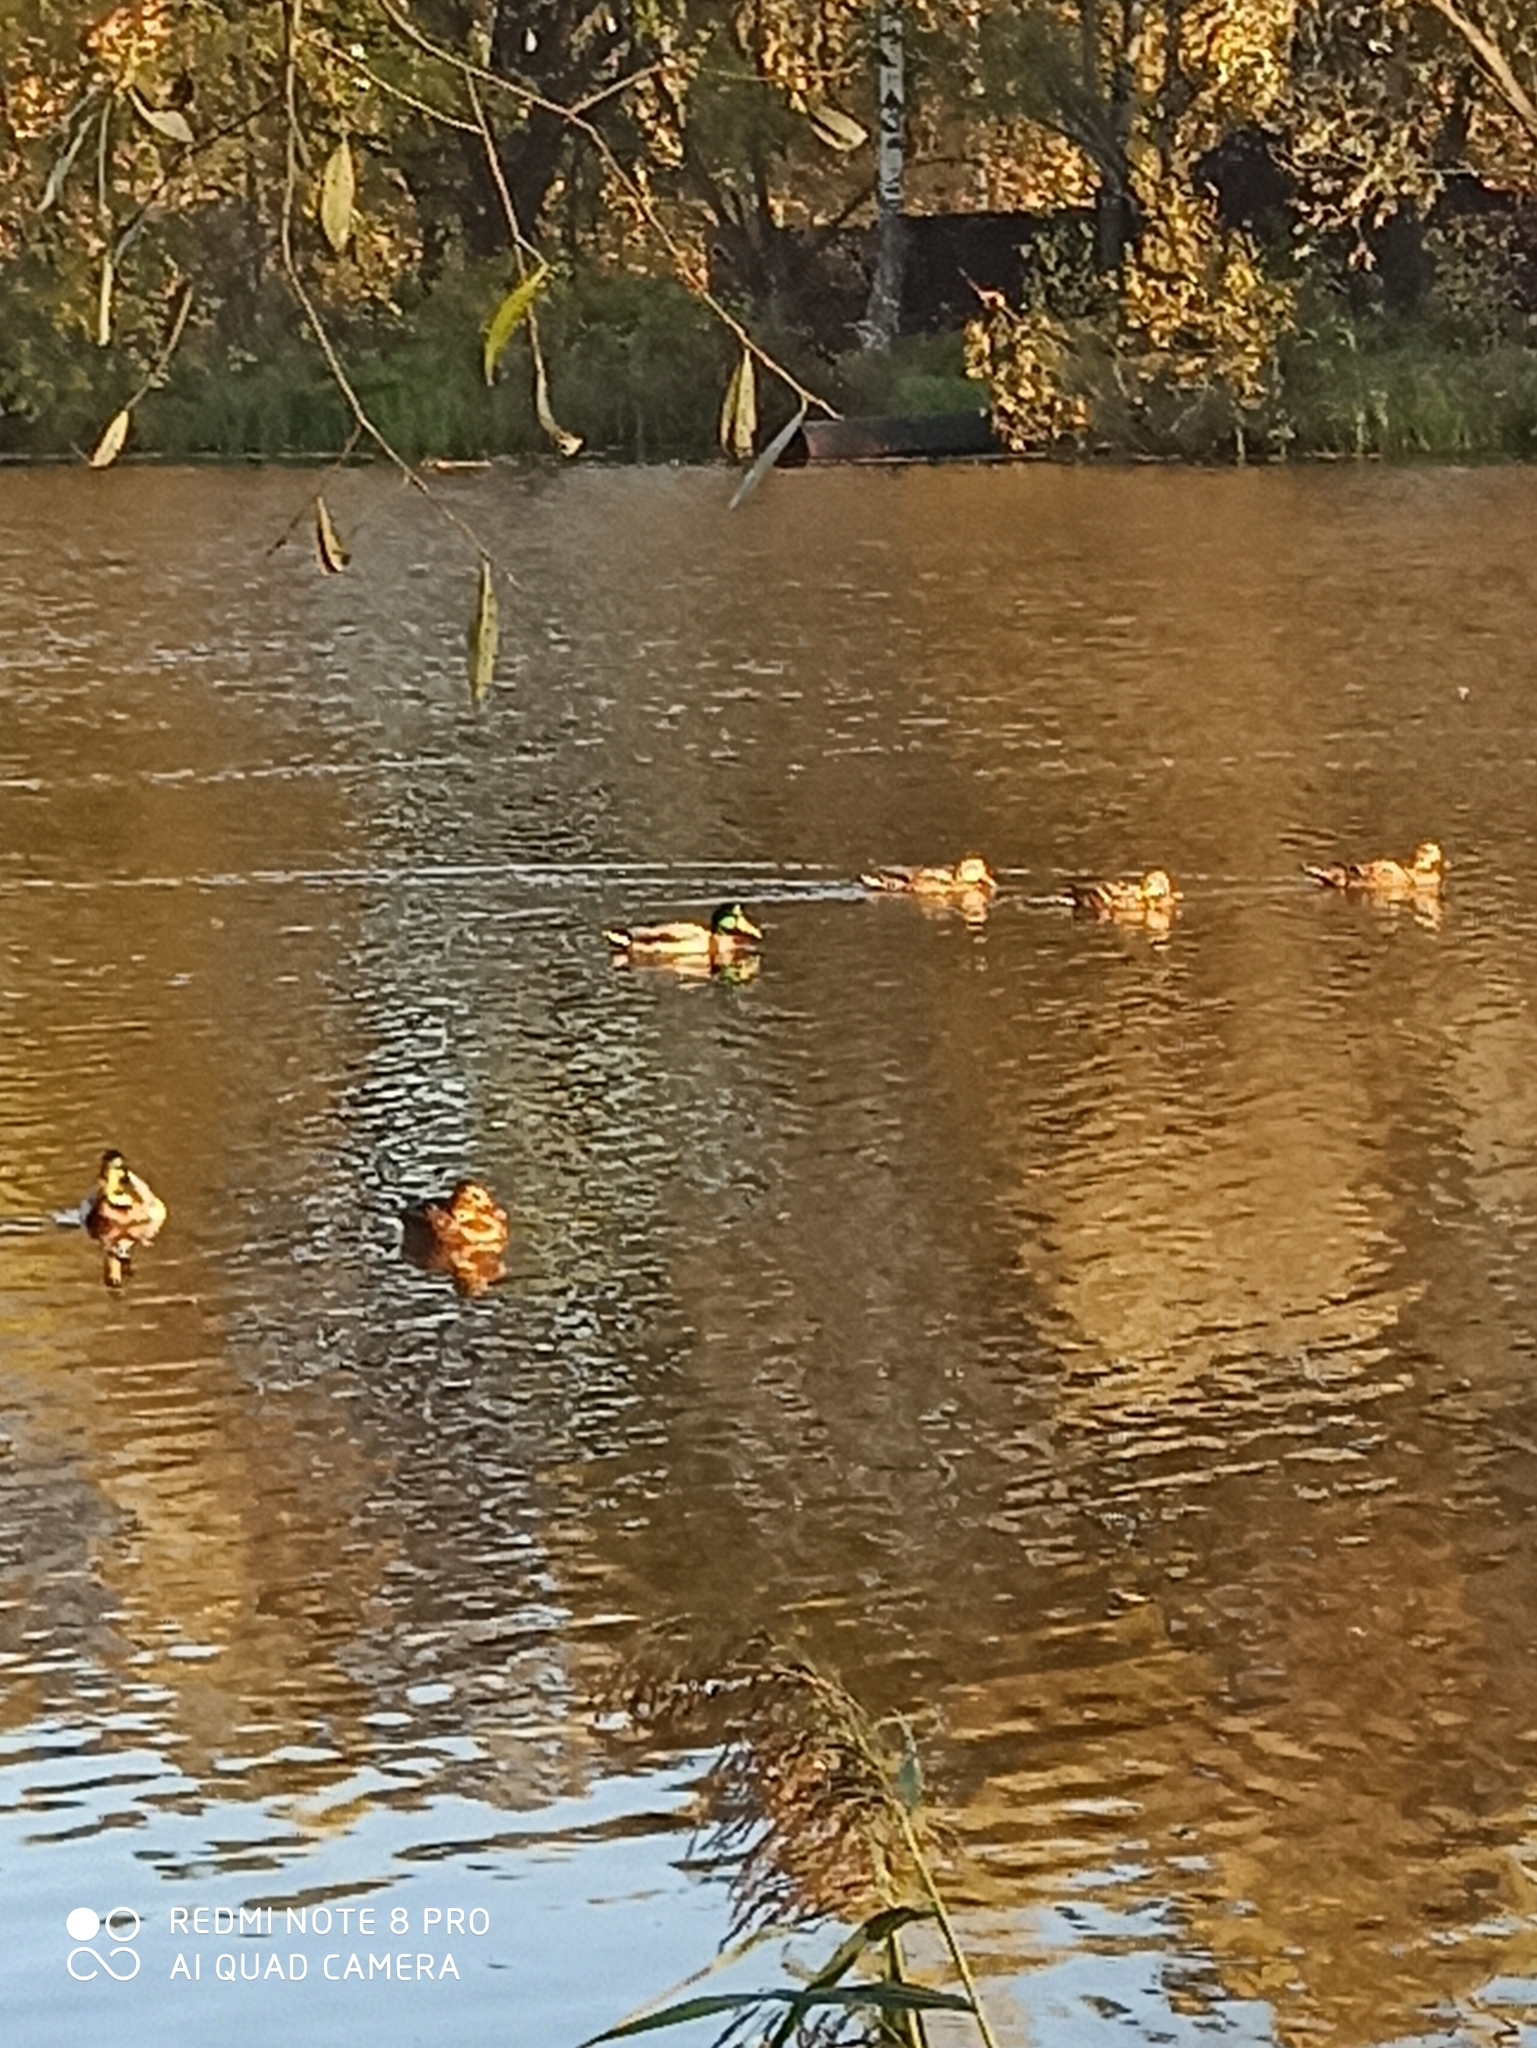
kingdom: Animalia
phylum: Chordata
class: Aves
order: Anseriformes
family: Anatidae
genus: Anas
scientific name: Anas platyrhynchos
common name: Mallard
